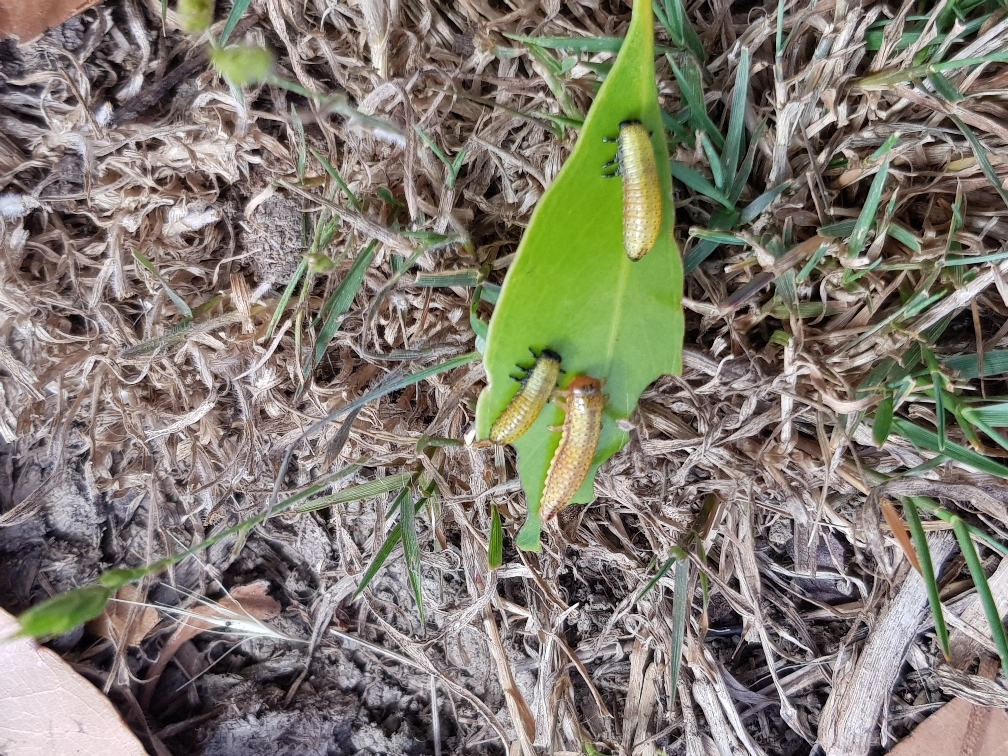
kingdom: Animalia
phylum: Arthropoda
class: Insecta
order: Coleoptera
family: Chrysomelidae
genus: Paropsis
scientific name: Paropsis charybdis
